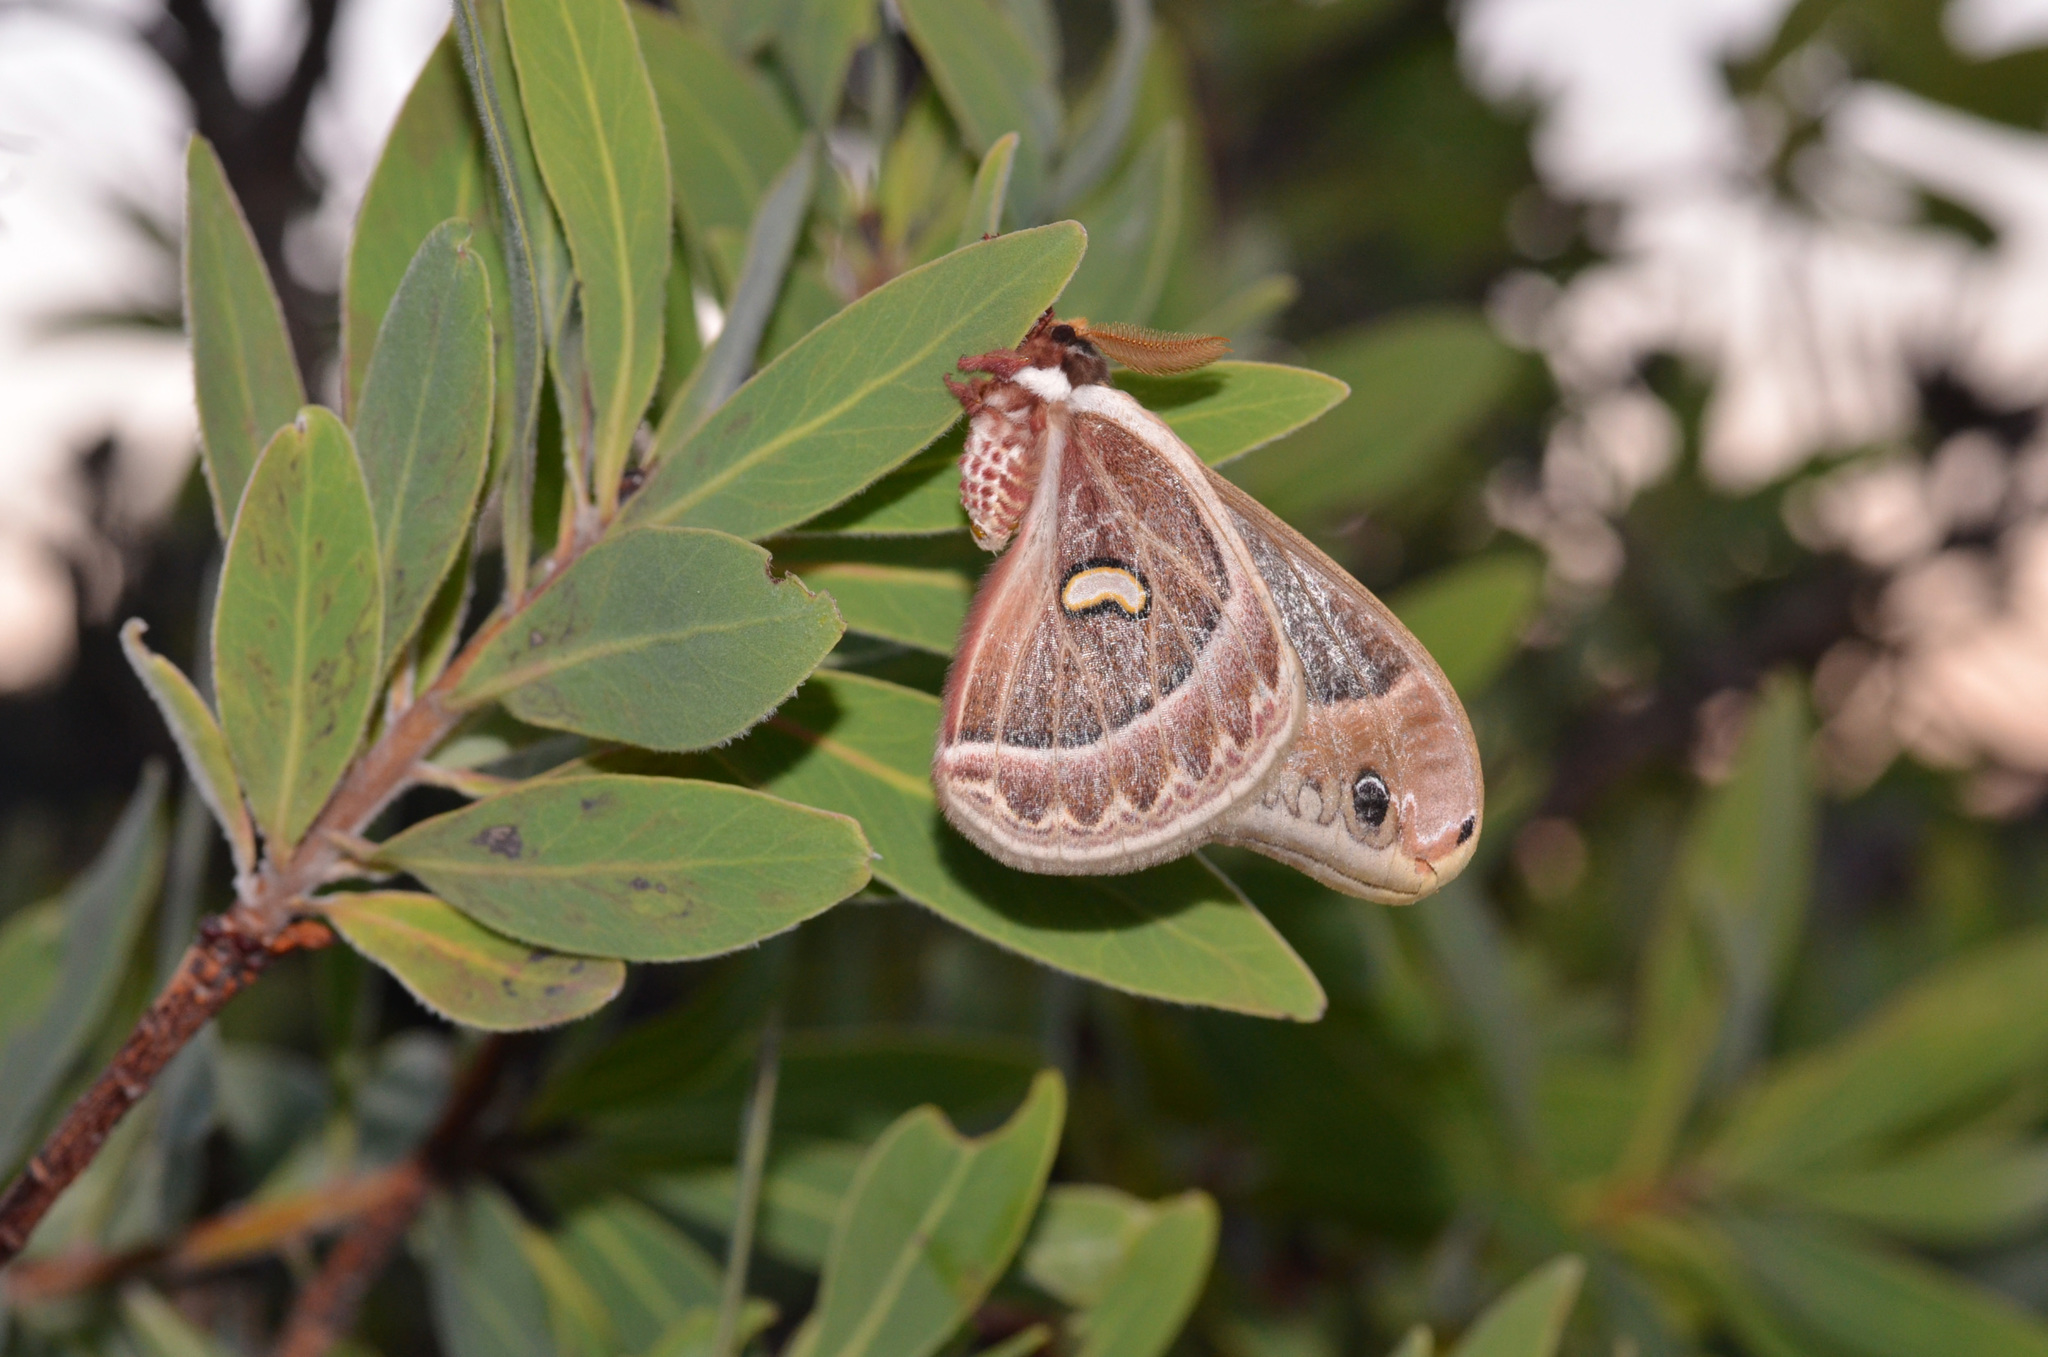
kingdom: Animalia
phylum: Arthropoda
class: Insecta
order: Lepidoptera
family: Saturniidae
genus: Epiphora
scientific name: Epiphora manowensis
